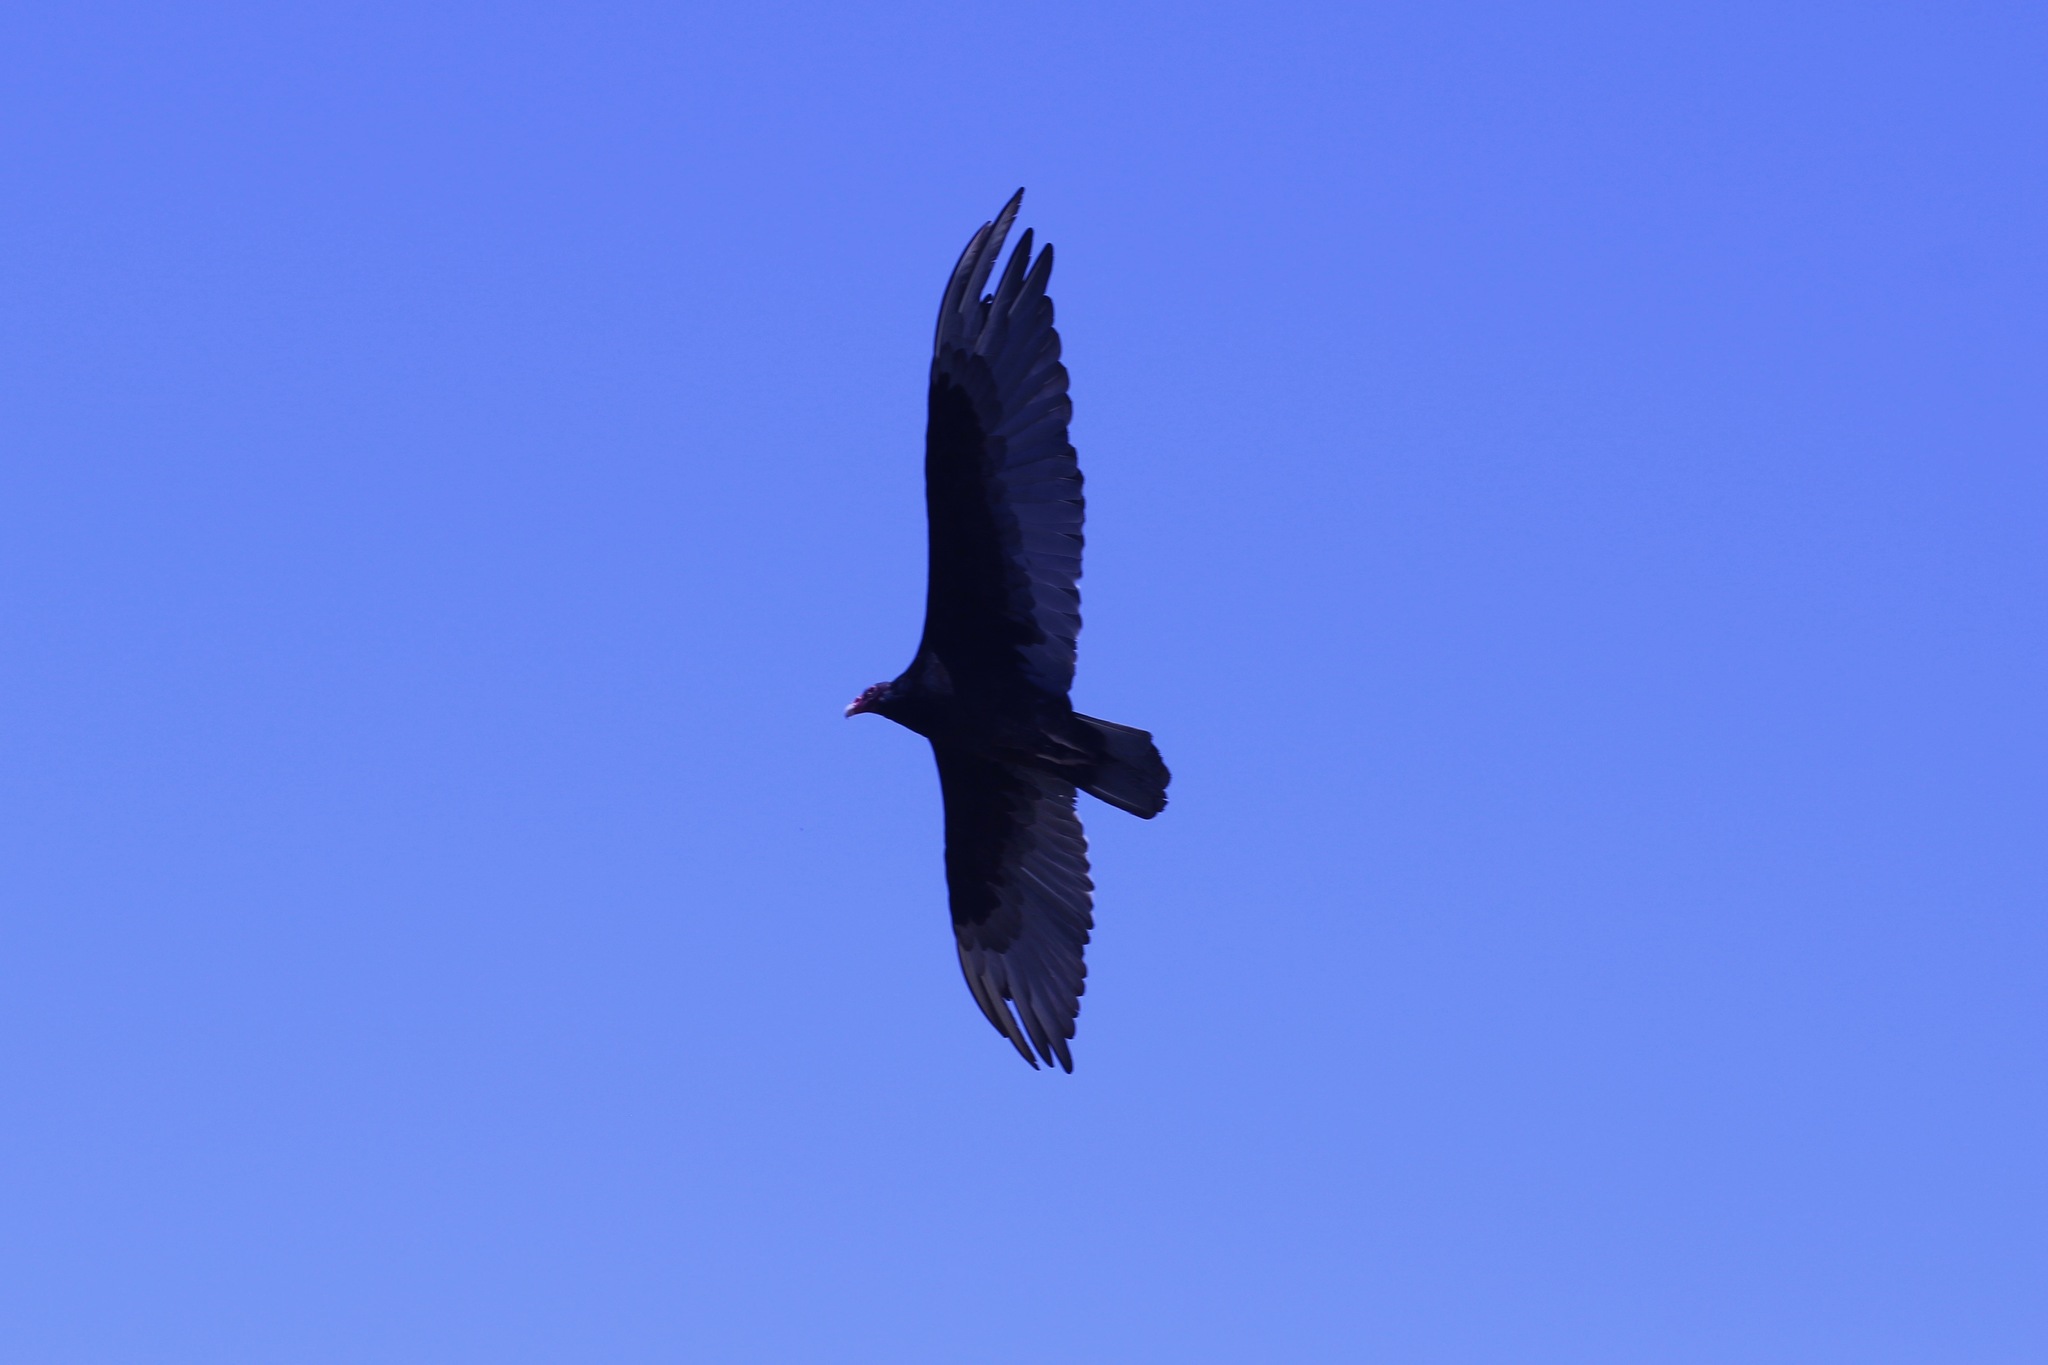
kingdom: Animalia
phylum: Chordata
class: Aves
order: Accipitriformes
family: Cathartidae
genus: Cathartes
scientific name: Cathartes aura
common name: Turkey vulture
